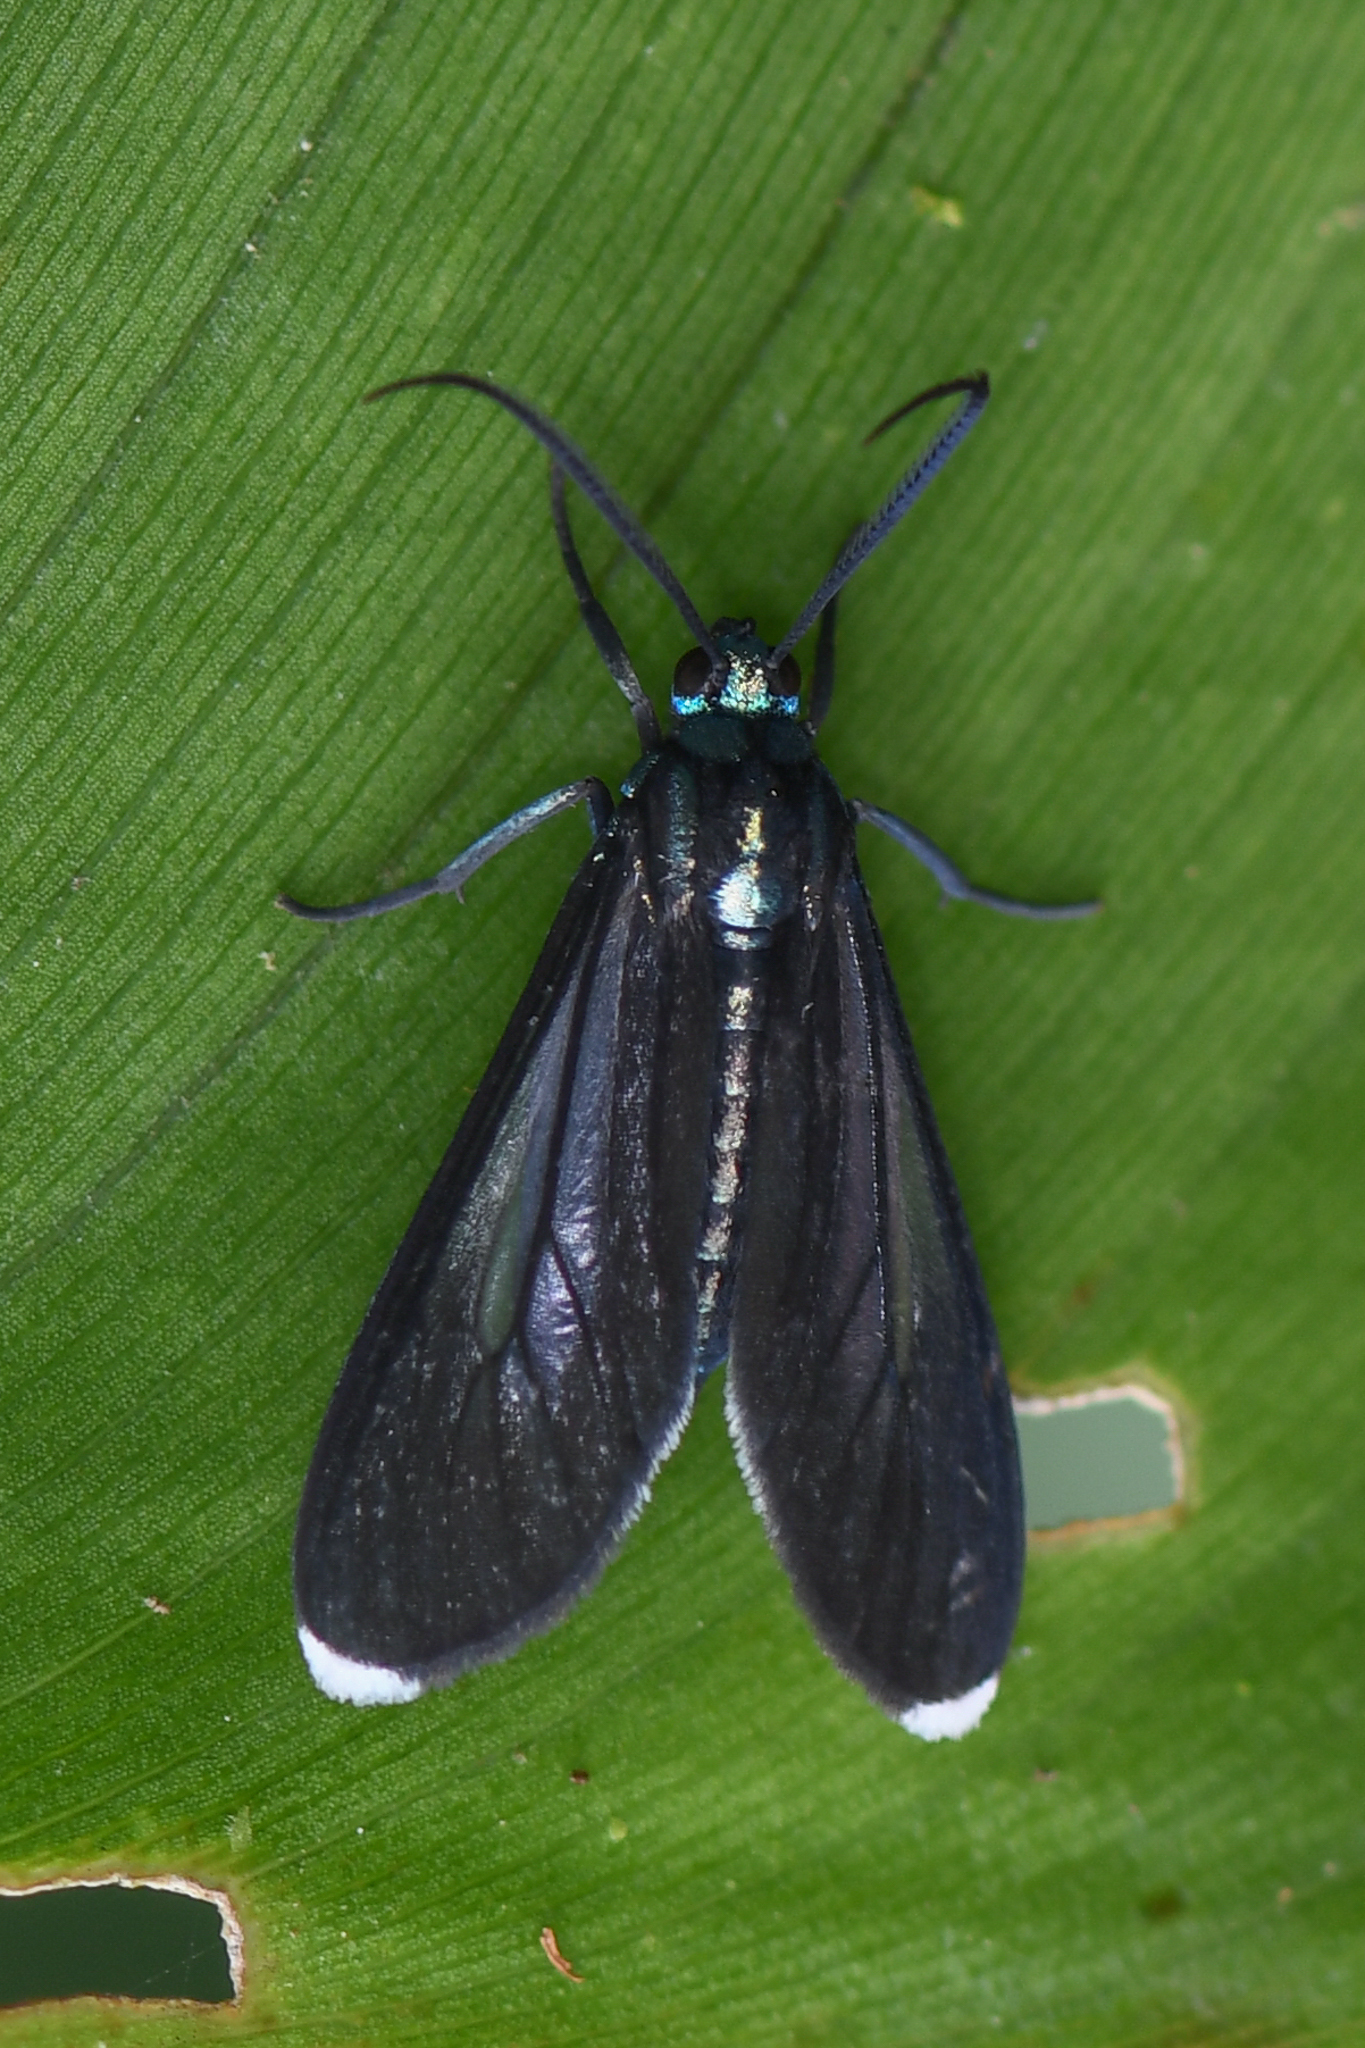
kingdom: Animalia
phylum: Arthropoda
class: Insecta
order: Lepidoptera
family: Erebidae
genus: Uranophora
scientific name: Uranophora leucotela
